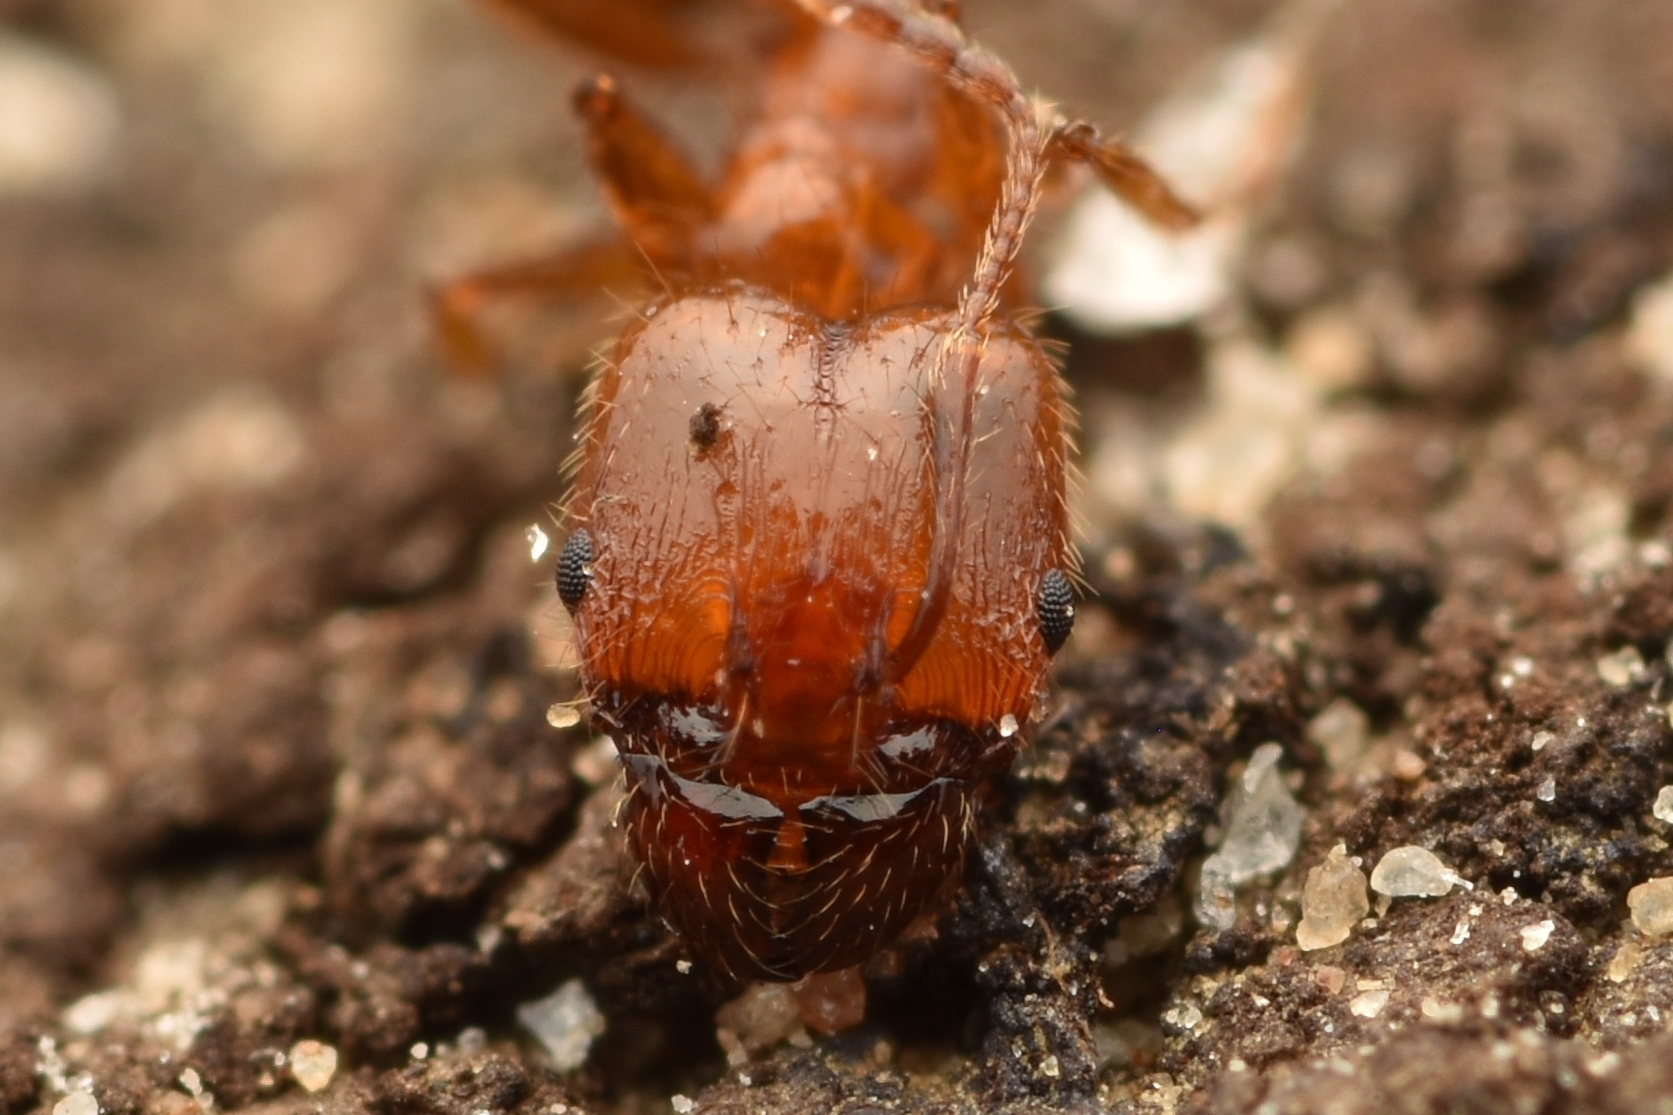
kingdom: Animalia
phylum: Arthropoda
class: Insecta
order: Hymenoptera
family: Formicidae
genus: Pheidole
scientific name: Pheidole dentata
